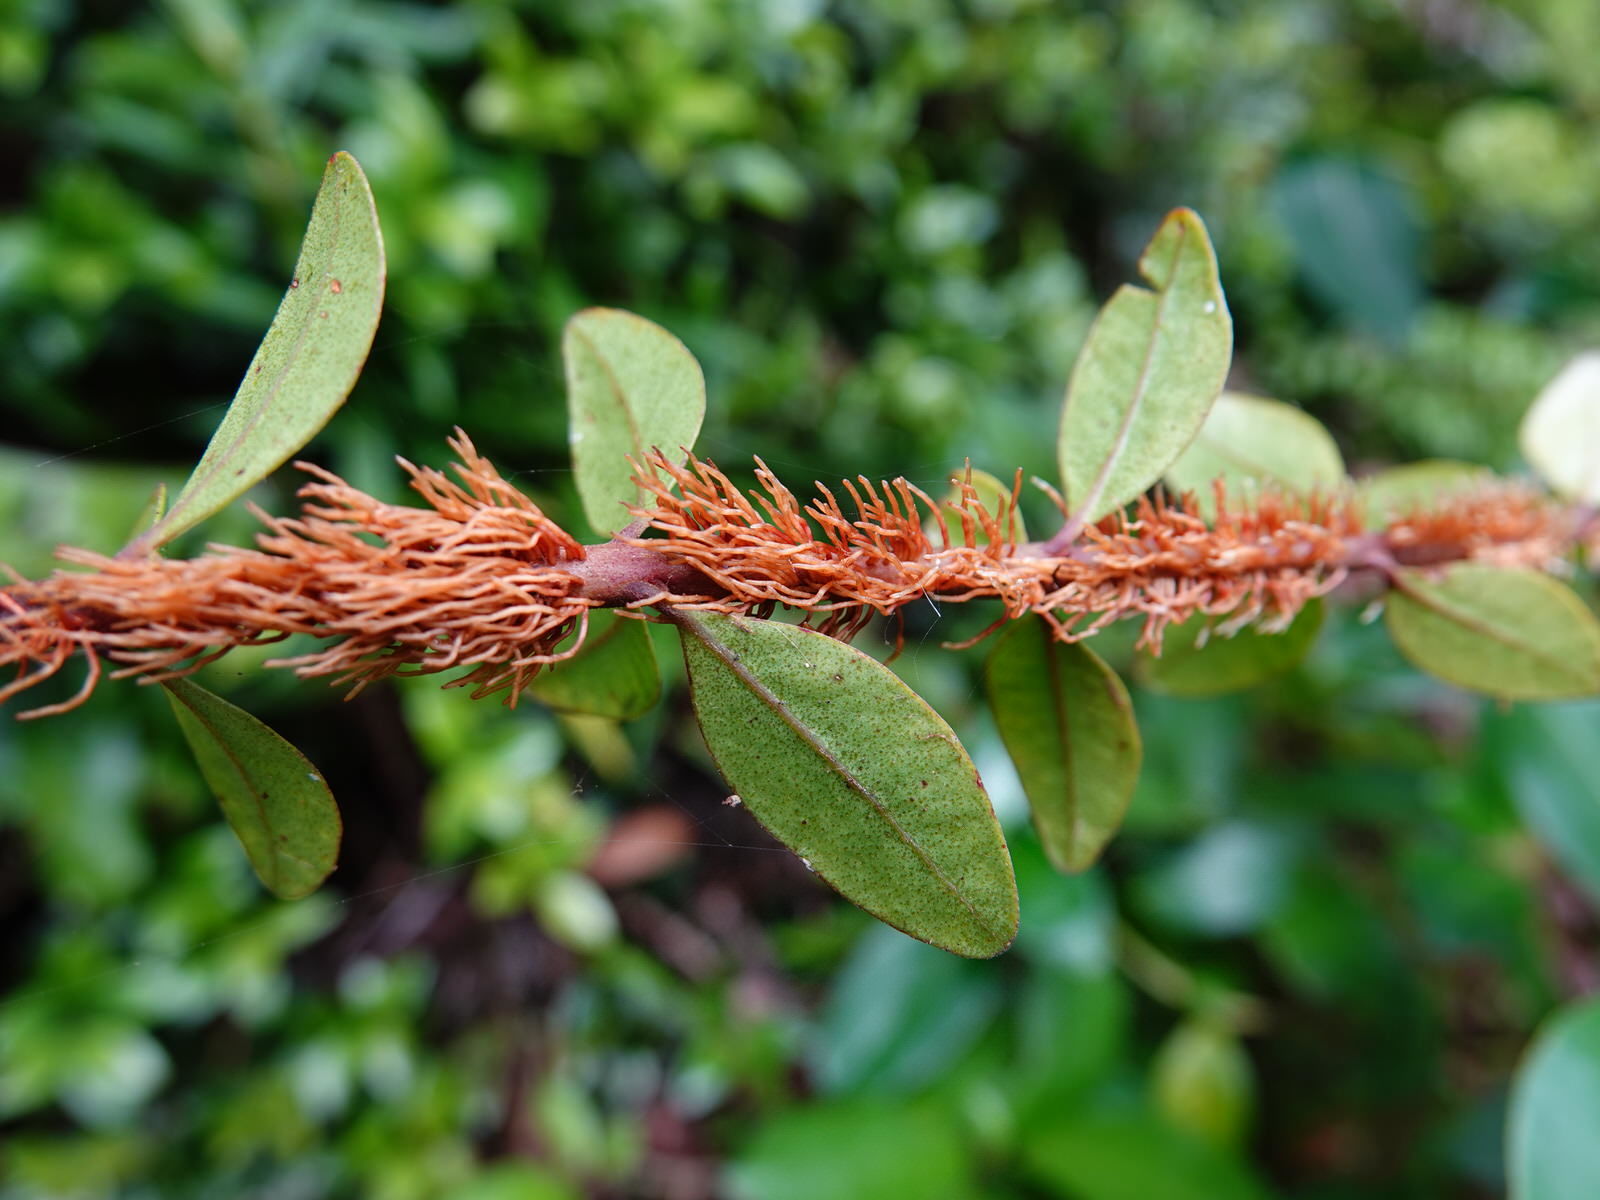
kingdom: Plantae
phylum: Tracheophyta
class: Magnoliopsida
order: Myrtales
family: Myrtaceae
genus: Metrosideros
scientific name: Metrosideros fulgens
